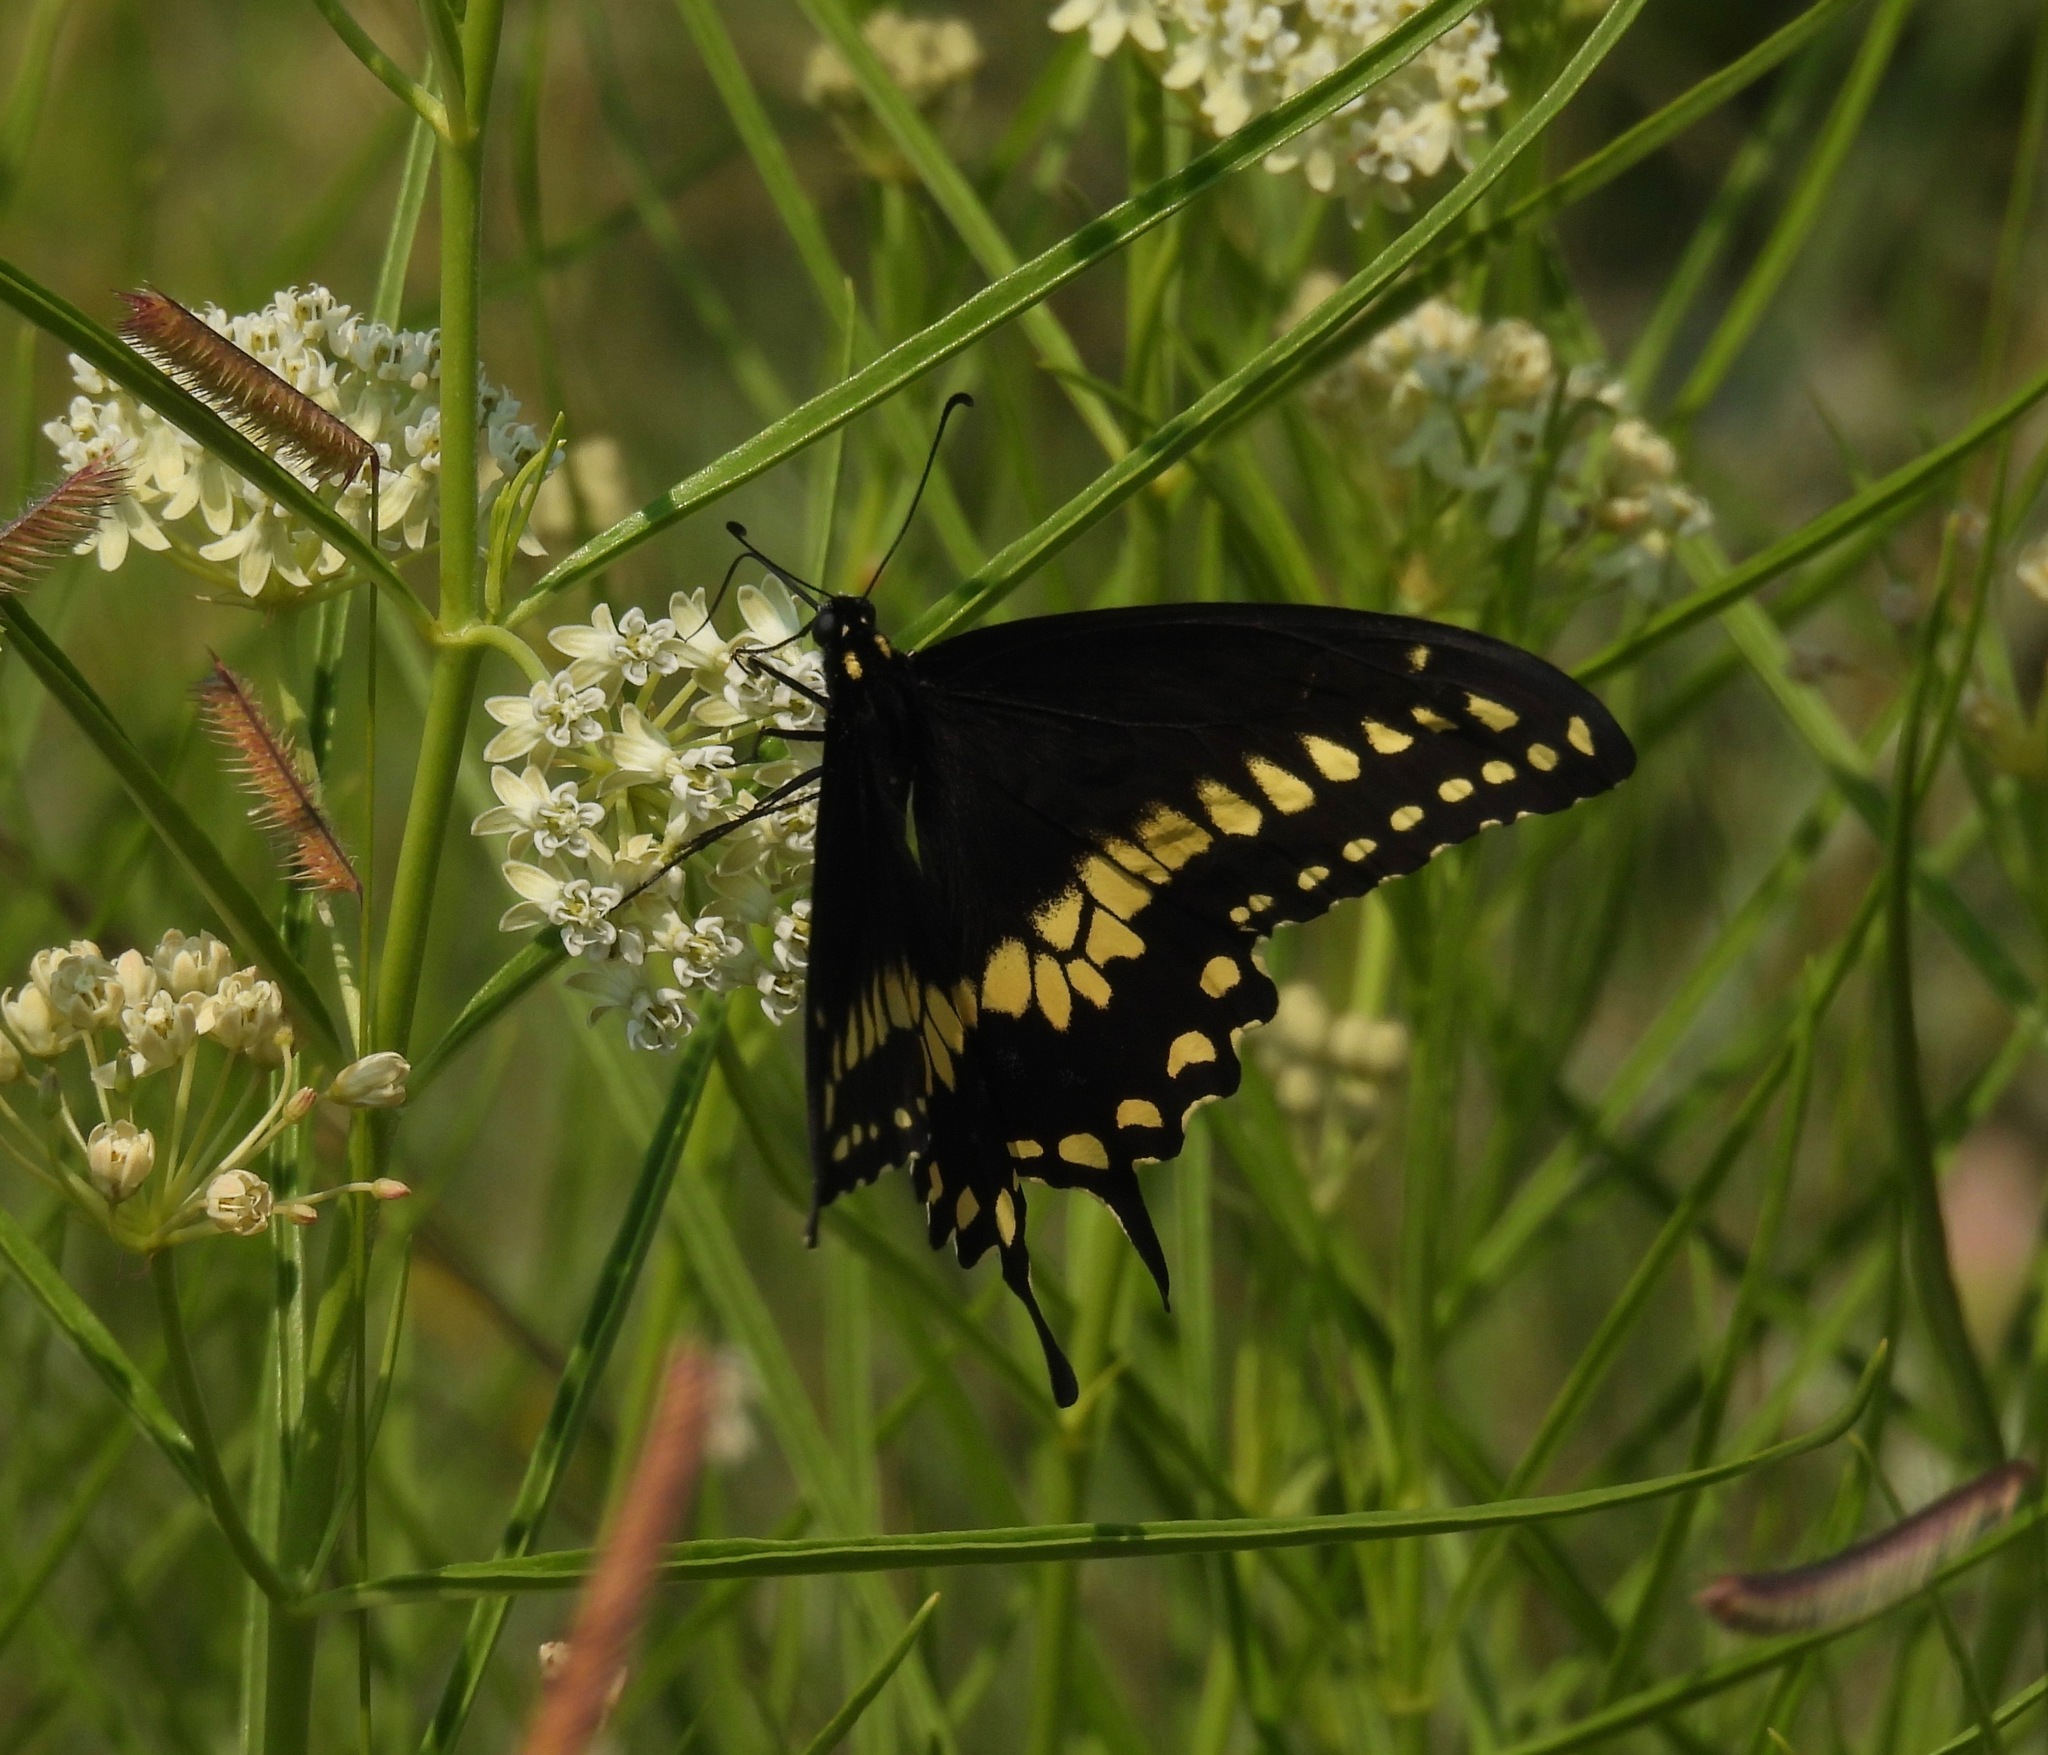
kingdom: Animalia
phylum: Arthropoda
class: Insecta
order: Lepidoptera
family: Papilionidae
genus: Papilio
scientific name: Papilio polyxenes
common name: Black swallowtail
